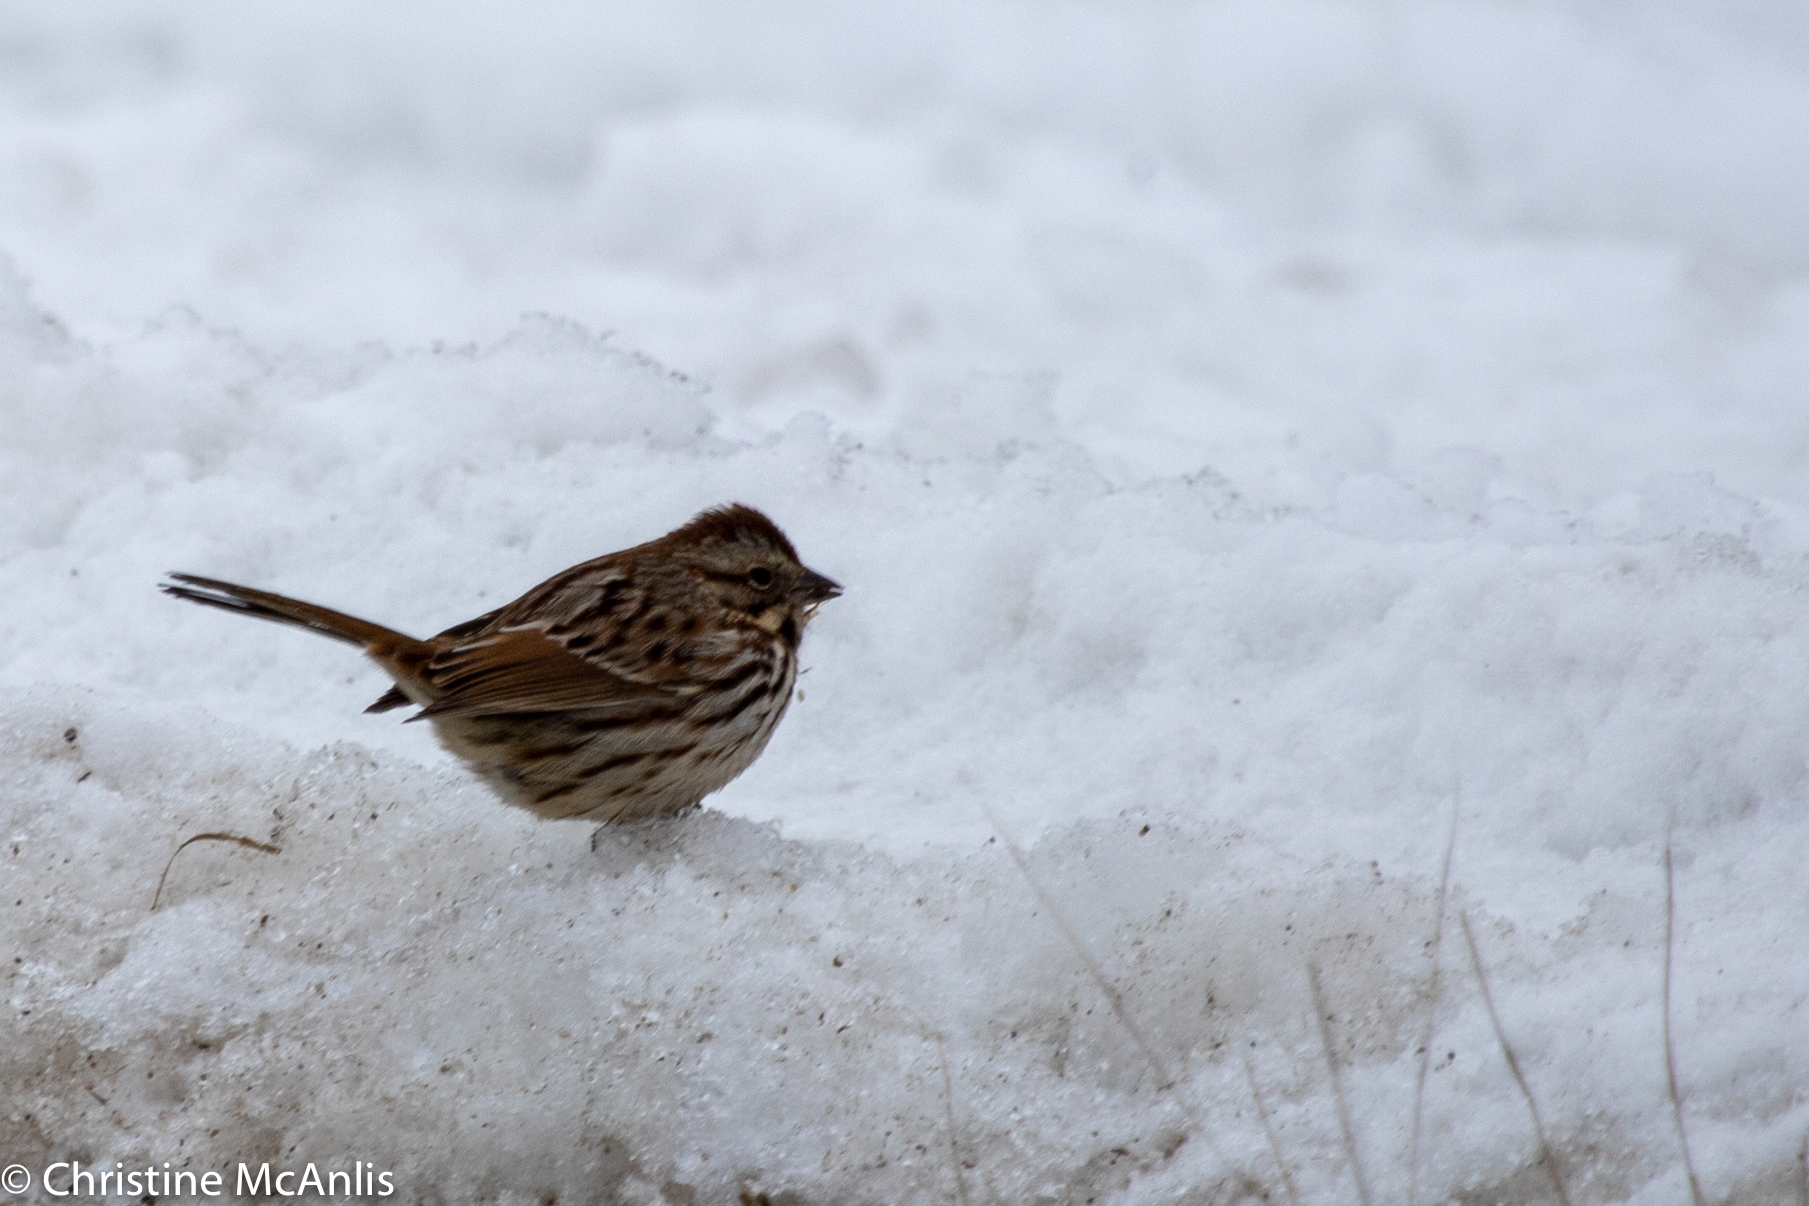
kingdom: Animalia
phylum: Chordata
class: Aves
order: Passeriformes
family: Passerellidae
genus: Melospiza
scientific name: Melospiza melodia
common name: Song sparrow
